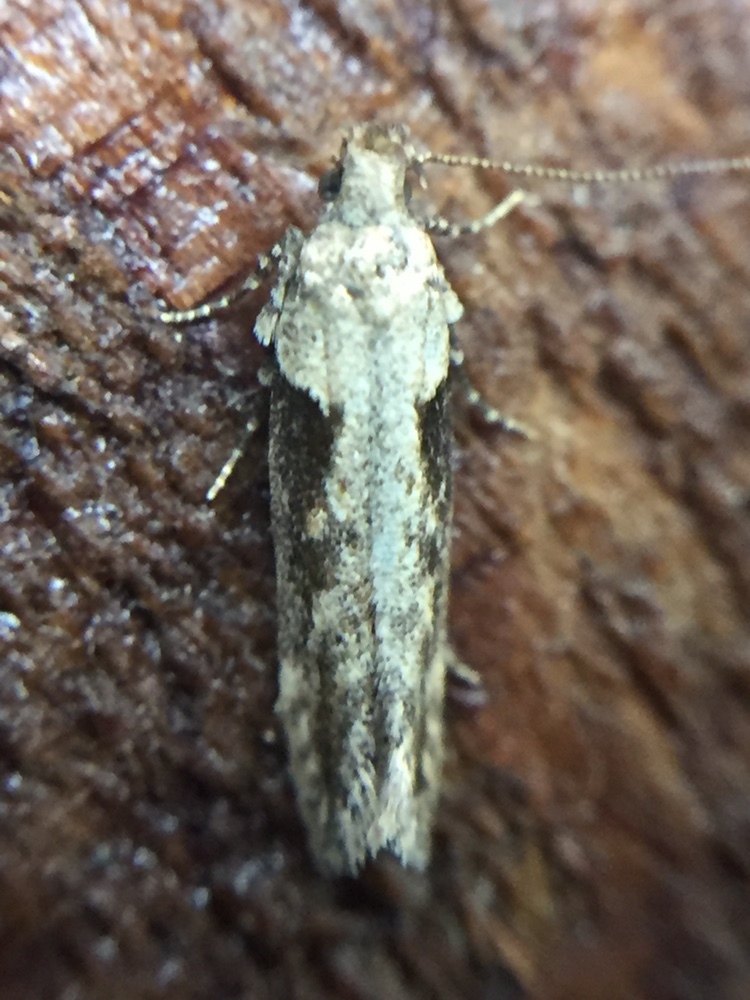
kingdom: Animalia
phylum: Arthropoda
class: Insecta
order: Lepidoptera
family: Gelechiidae
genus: Symmetrischema
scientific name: Symmetrischema tangolias
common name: Moth
